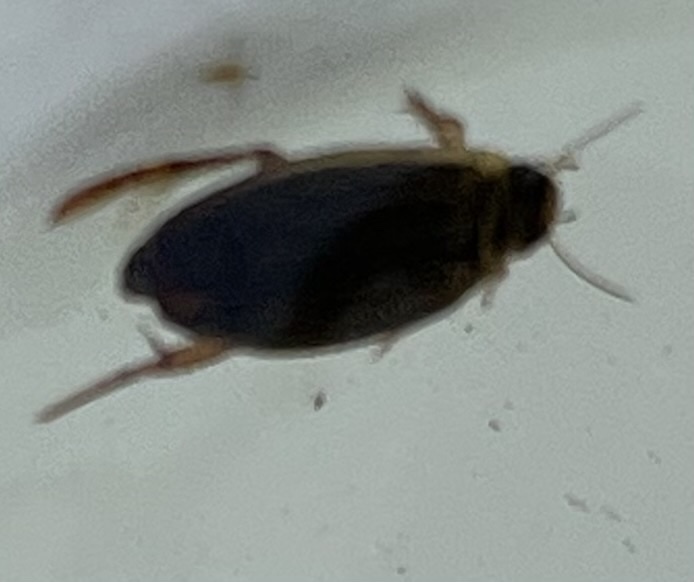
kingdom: Animalia
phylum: Arthropoda
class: Insecta
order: Coleoptera
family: Dytiscidae
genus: Rhantus
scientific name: Rhantus
